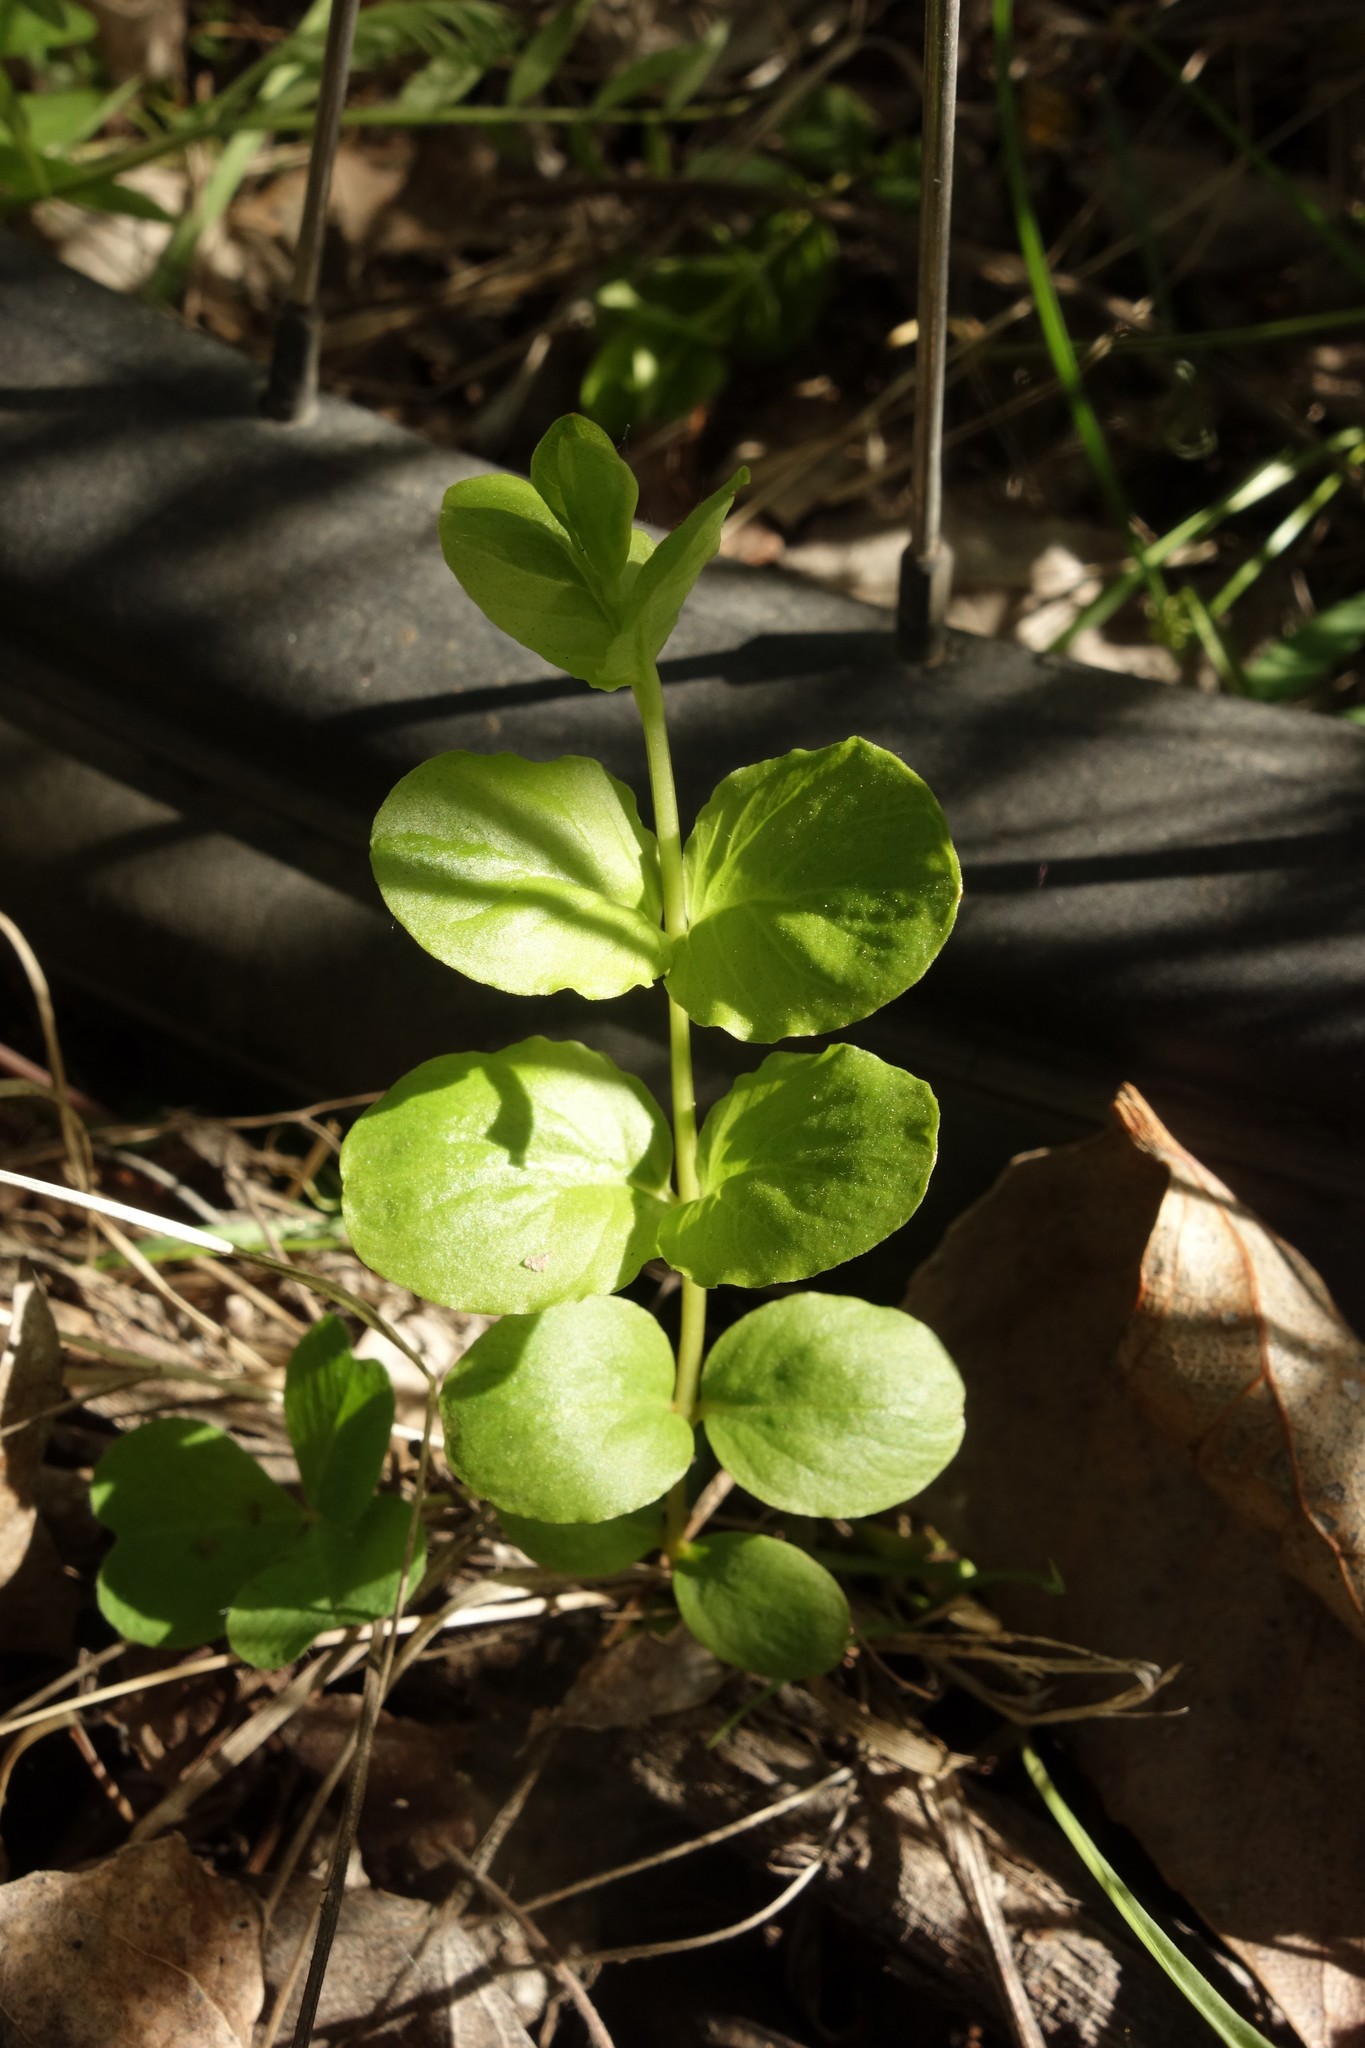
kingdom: Plantae
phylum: Tracheophyta
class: Magnoliopsida
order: Ericales
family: Primulaceae
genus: Lysimachia
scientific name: Lysimachia nummularia
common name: Moneywort
